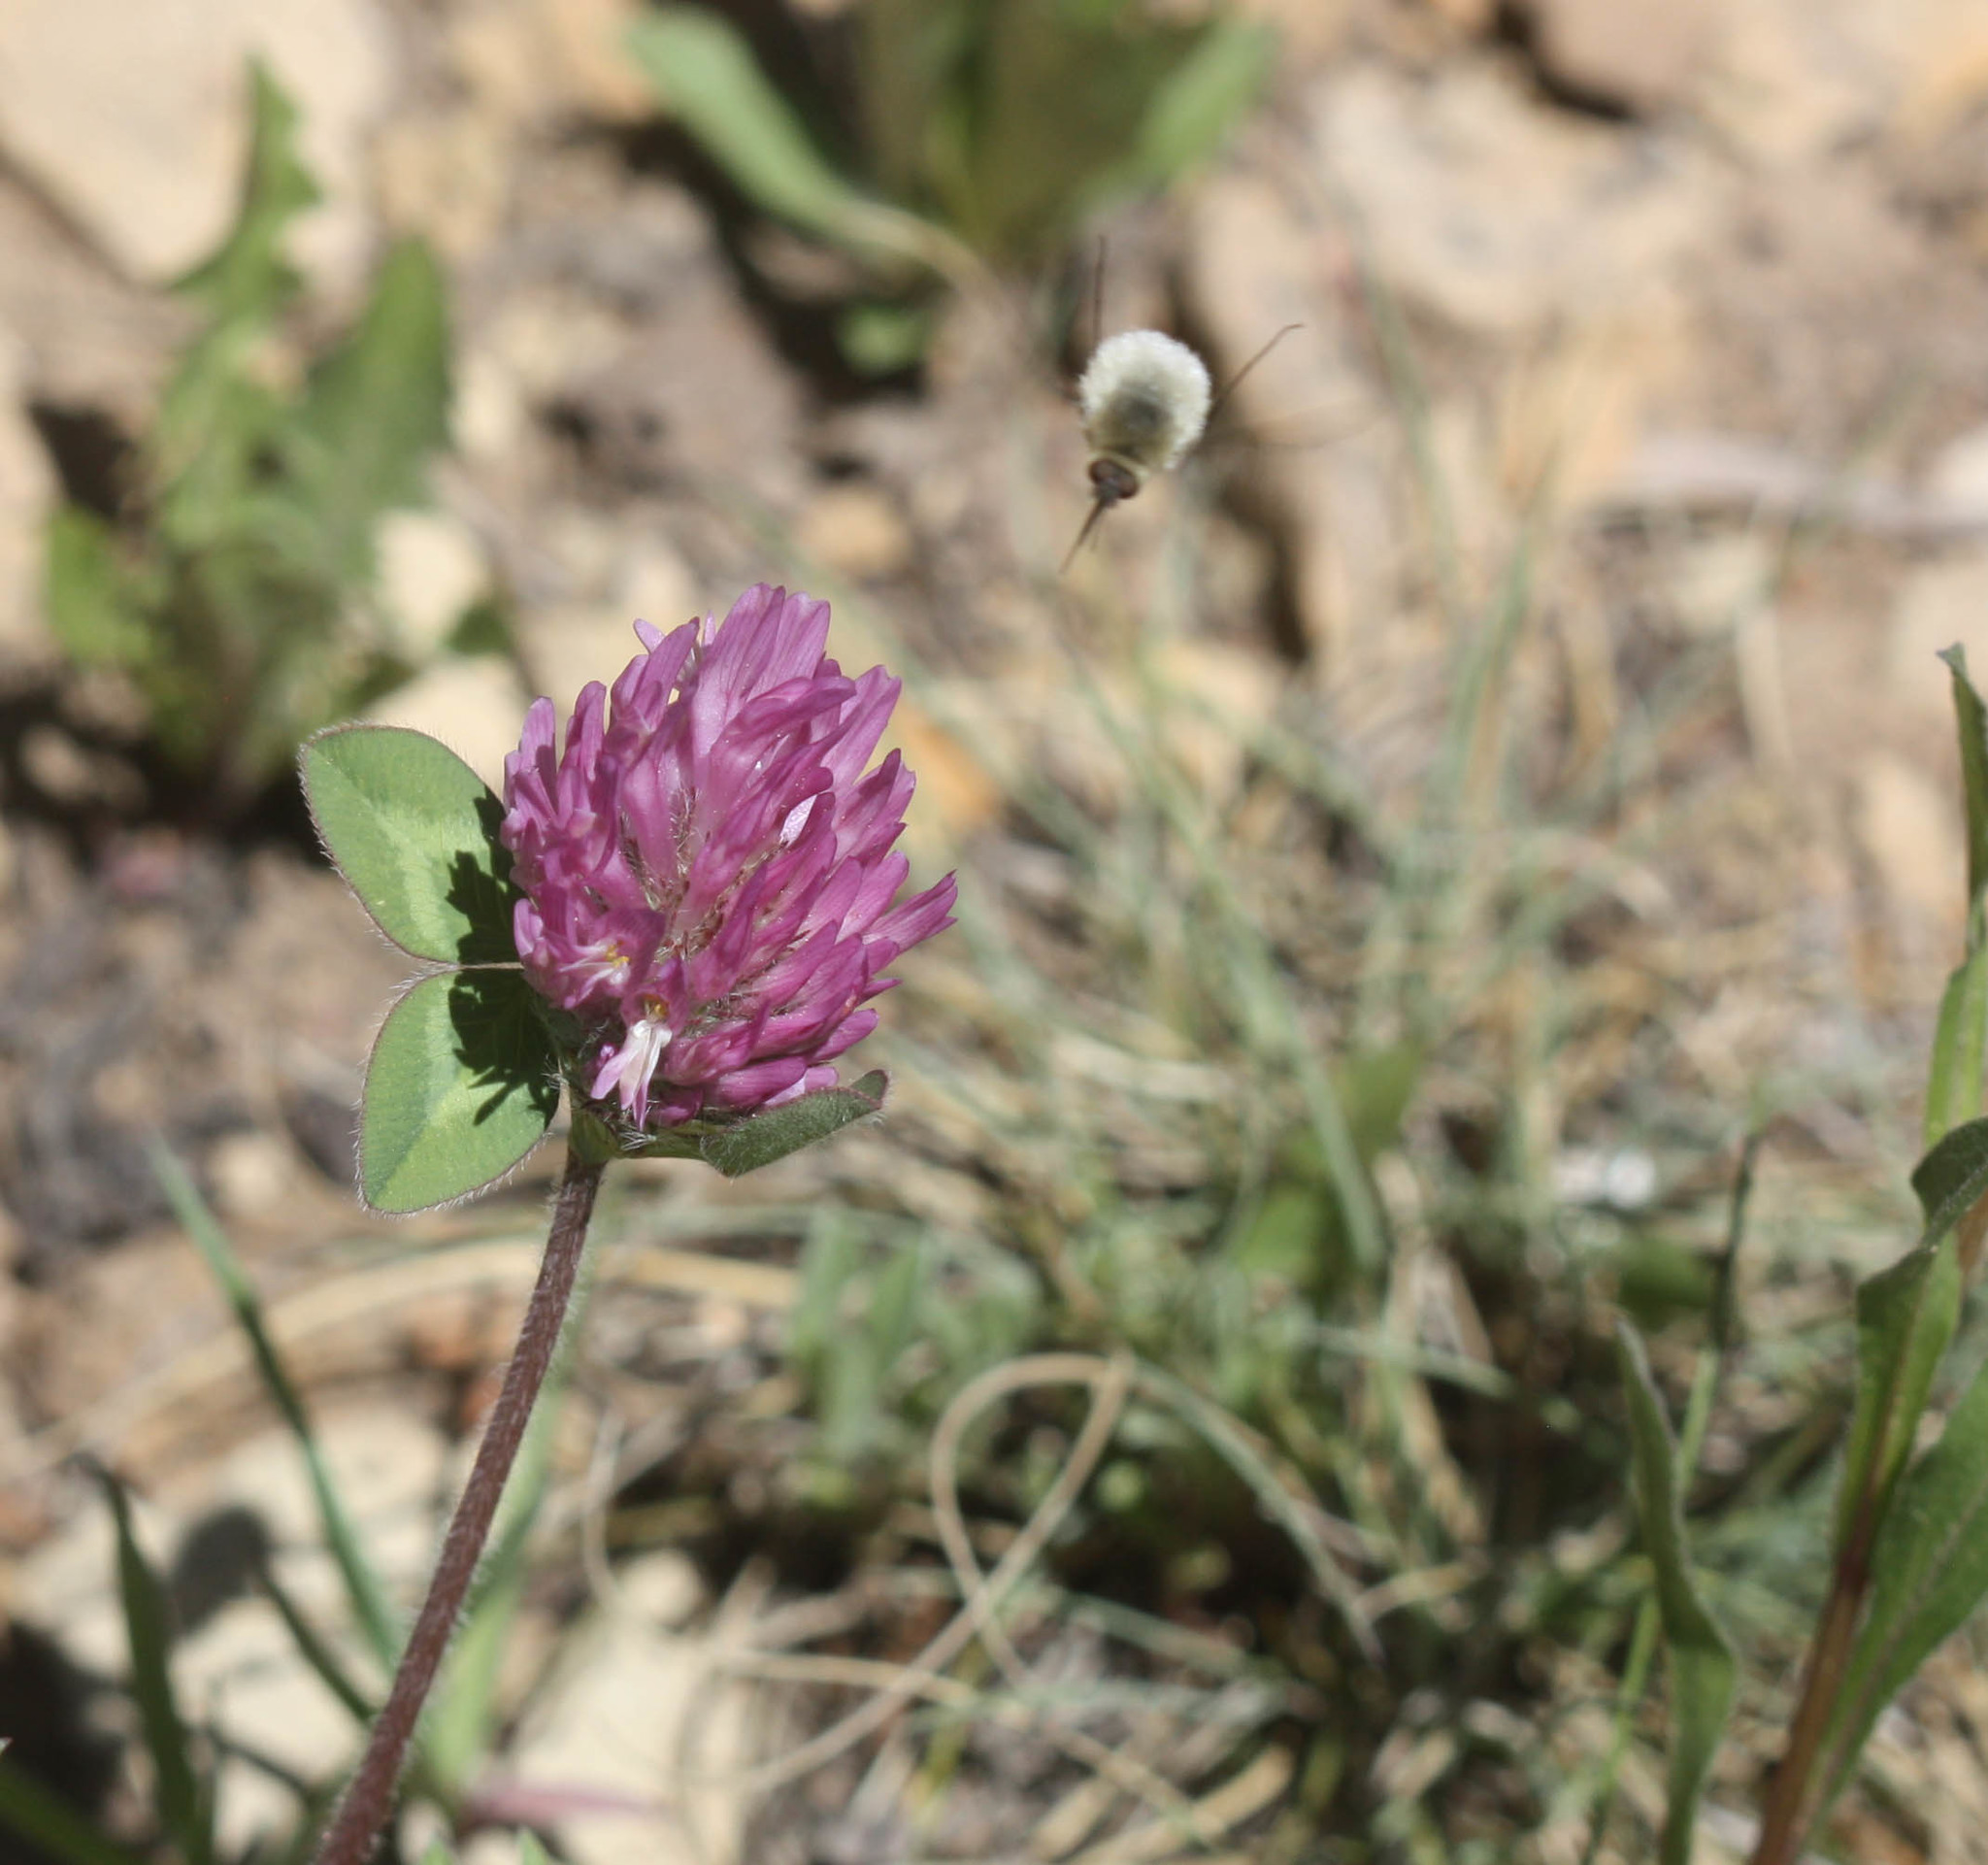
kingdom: Plantae
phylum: Tracheophyta
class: Magnoliopsida
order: Fabales
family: Fabaceae
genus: Trifolium
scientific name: Trifolium pratense
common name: Red clover
